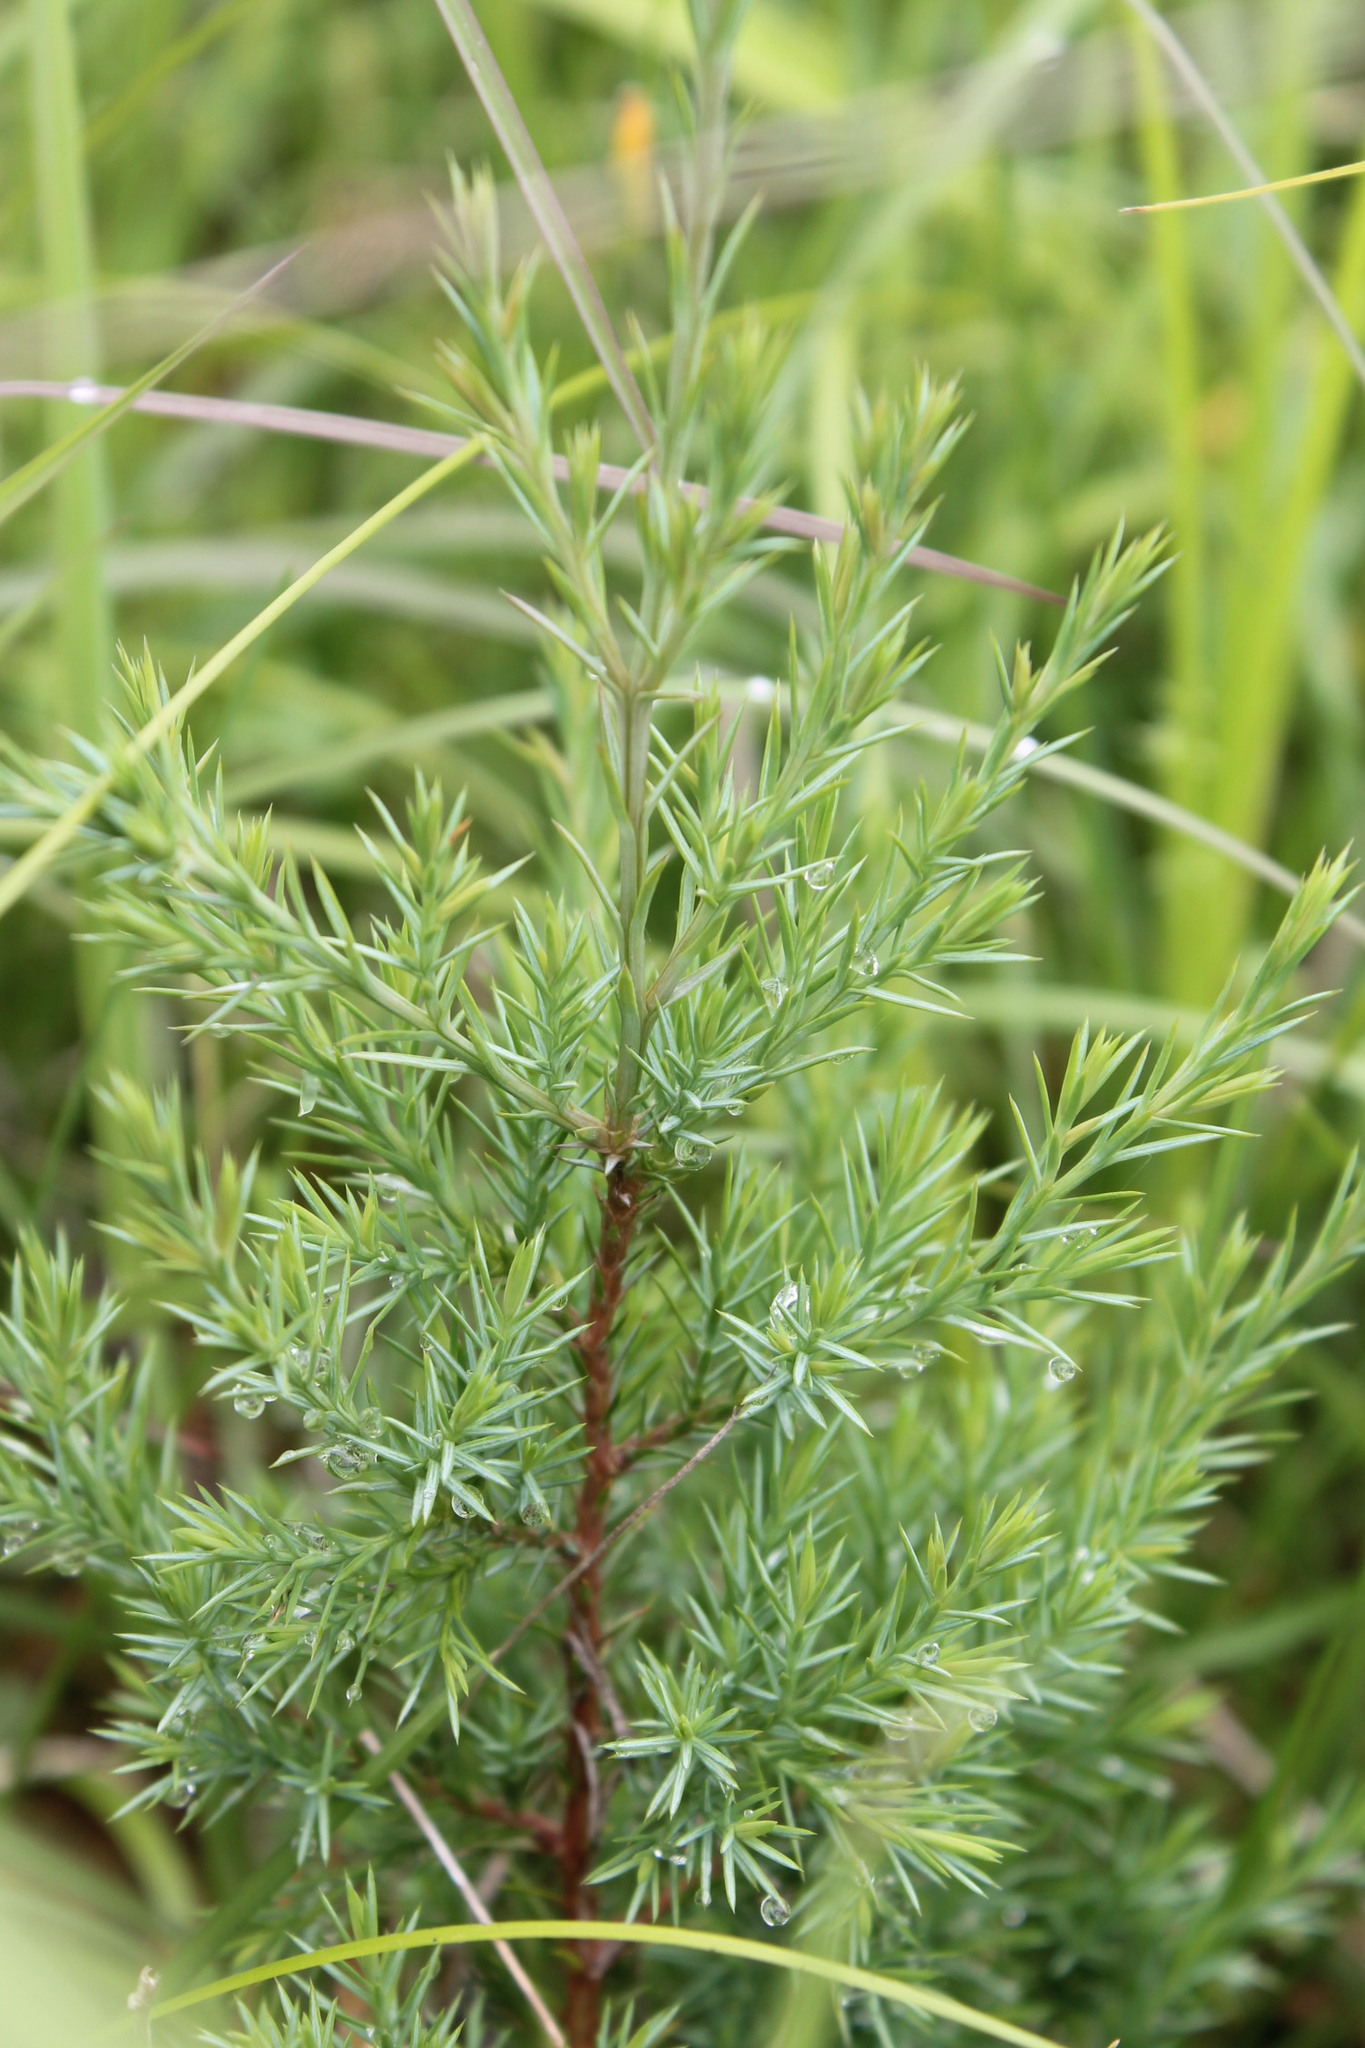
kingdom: Plantae
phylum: Tracheophyta
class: Pinopsida
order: Pinales
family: Cupressaceae
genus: Juniperus
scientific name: Juniperus virginiana
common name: Red juniper
